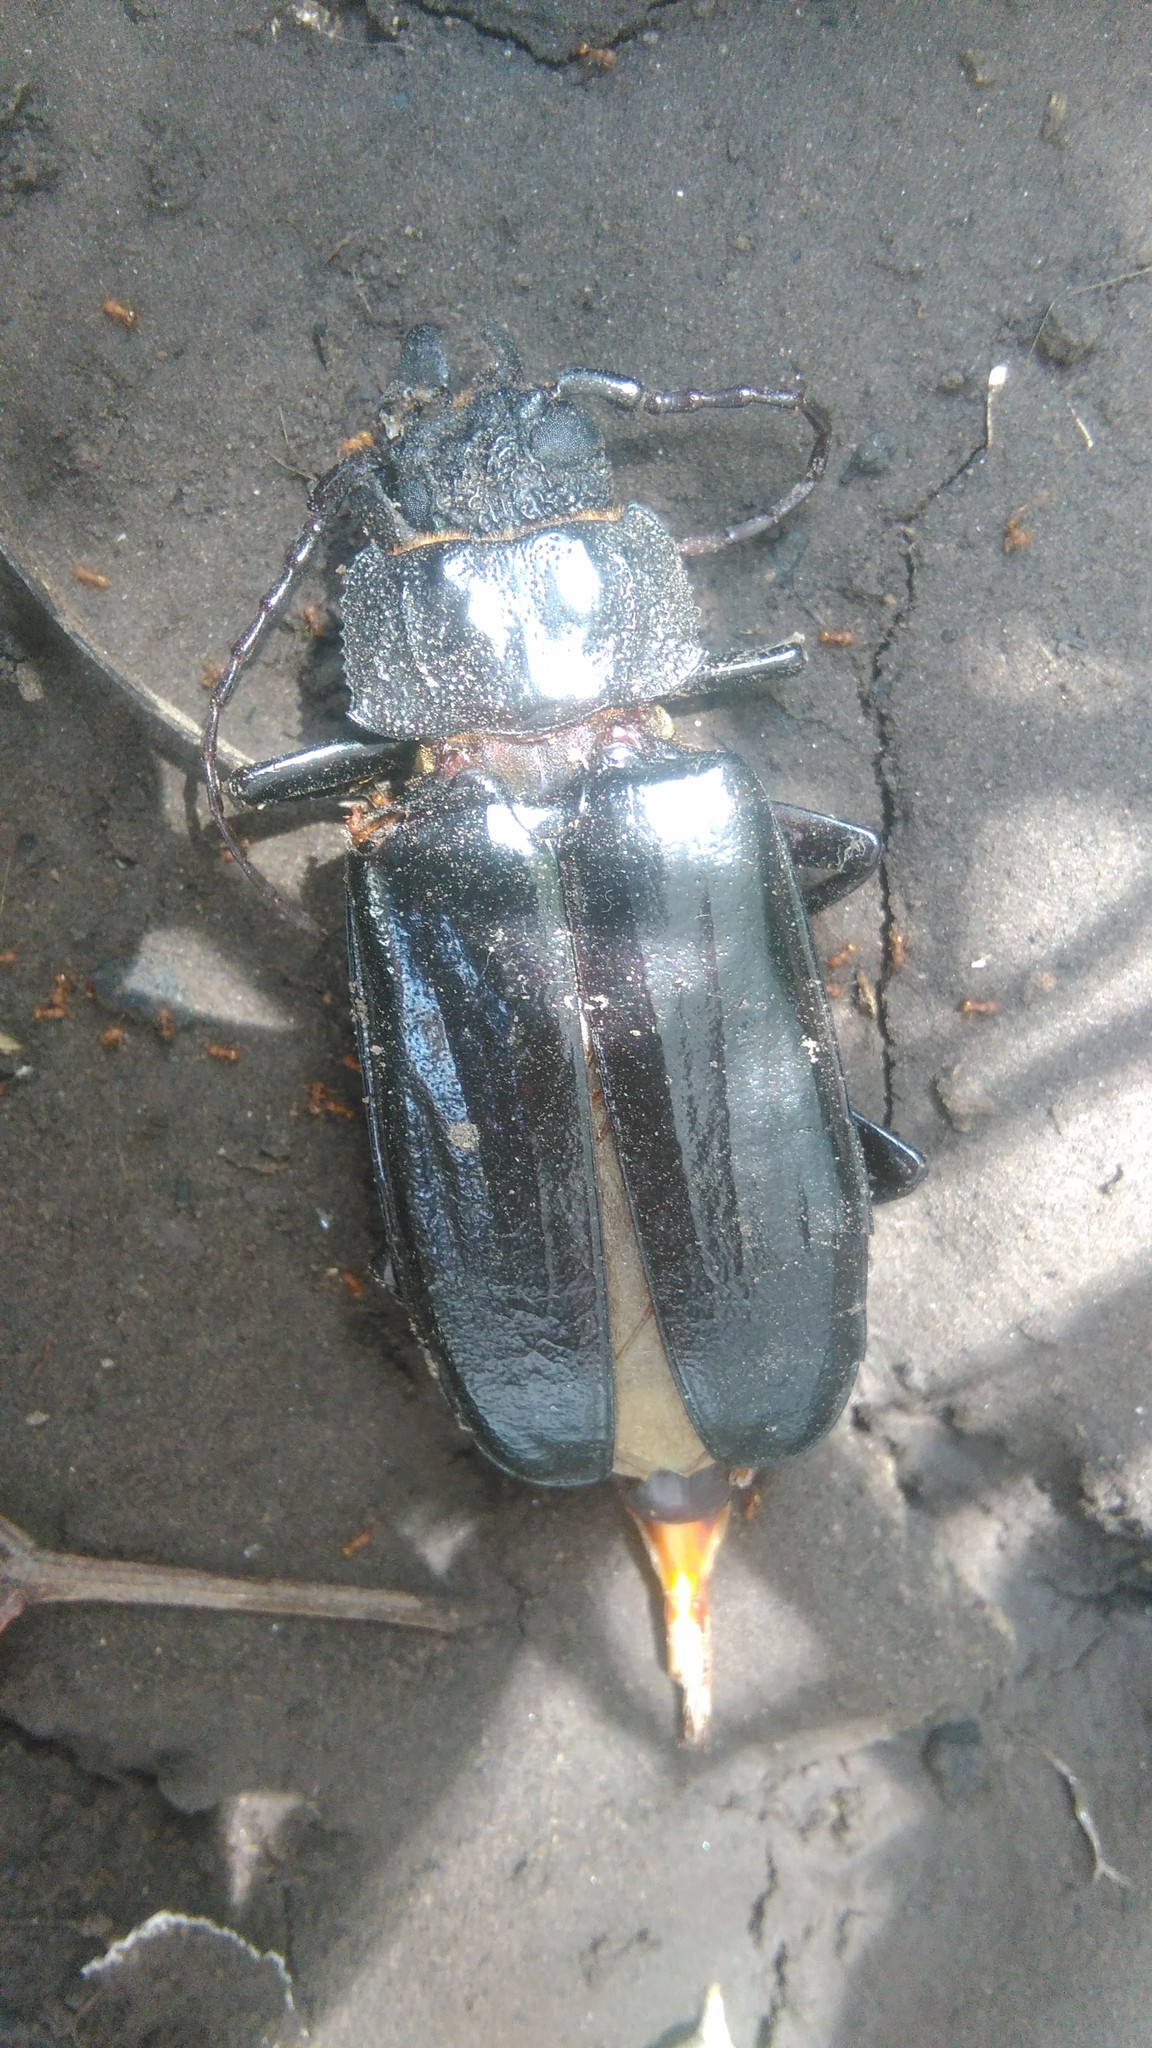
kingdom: Animalia
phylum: Arthropoda
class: Insecta
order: Coleoptera
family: Cerambycidae
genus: Mallodon
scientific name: Mallodon dasystomum
